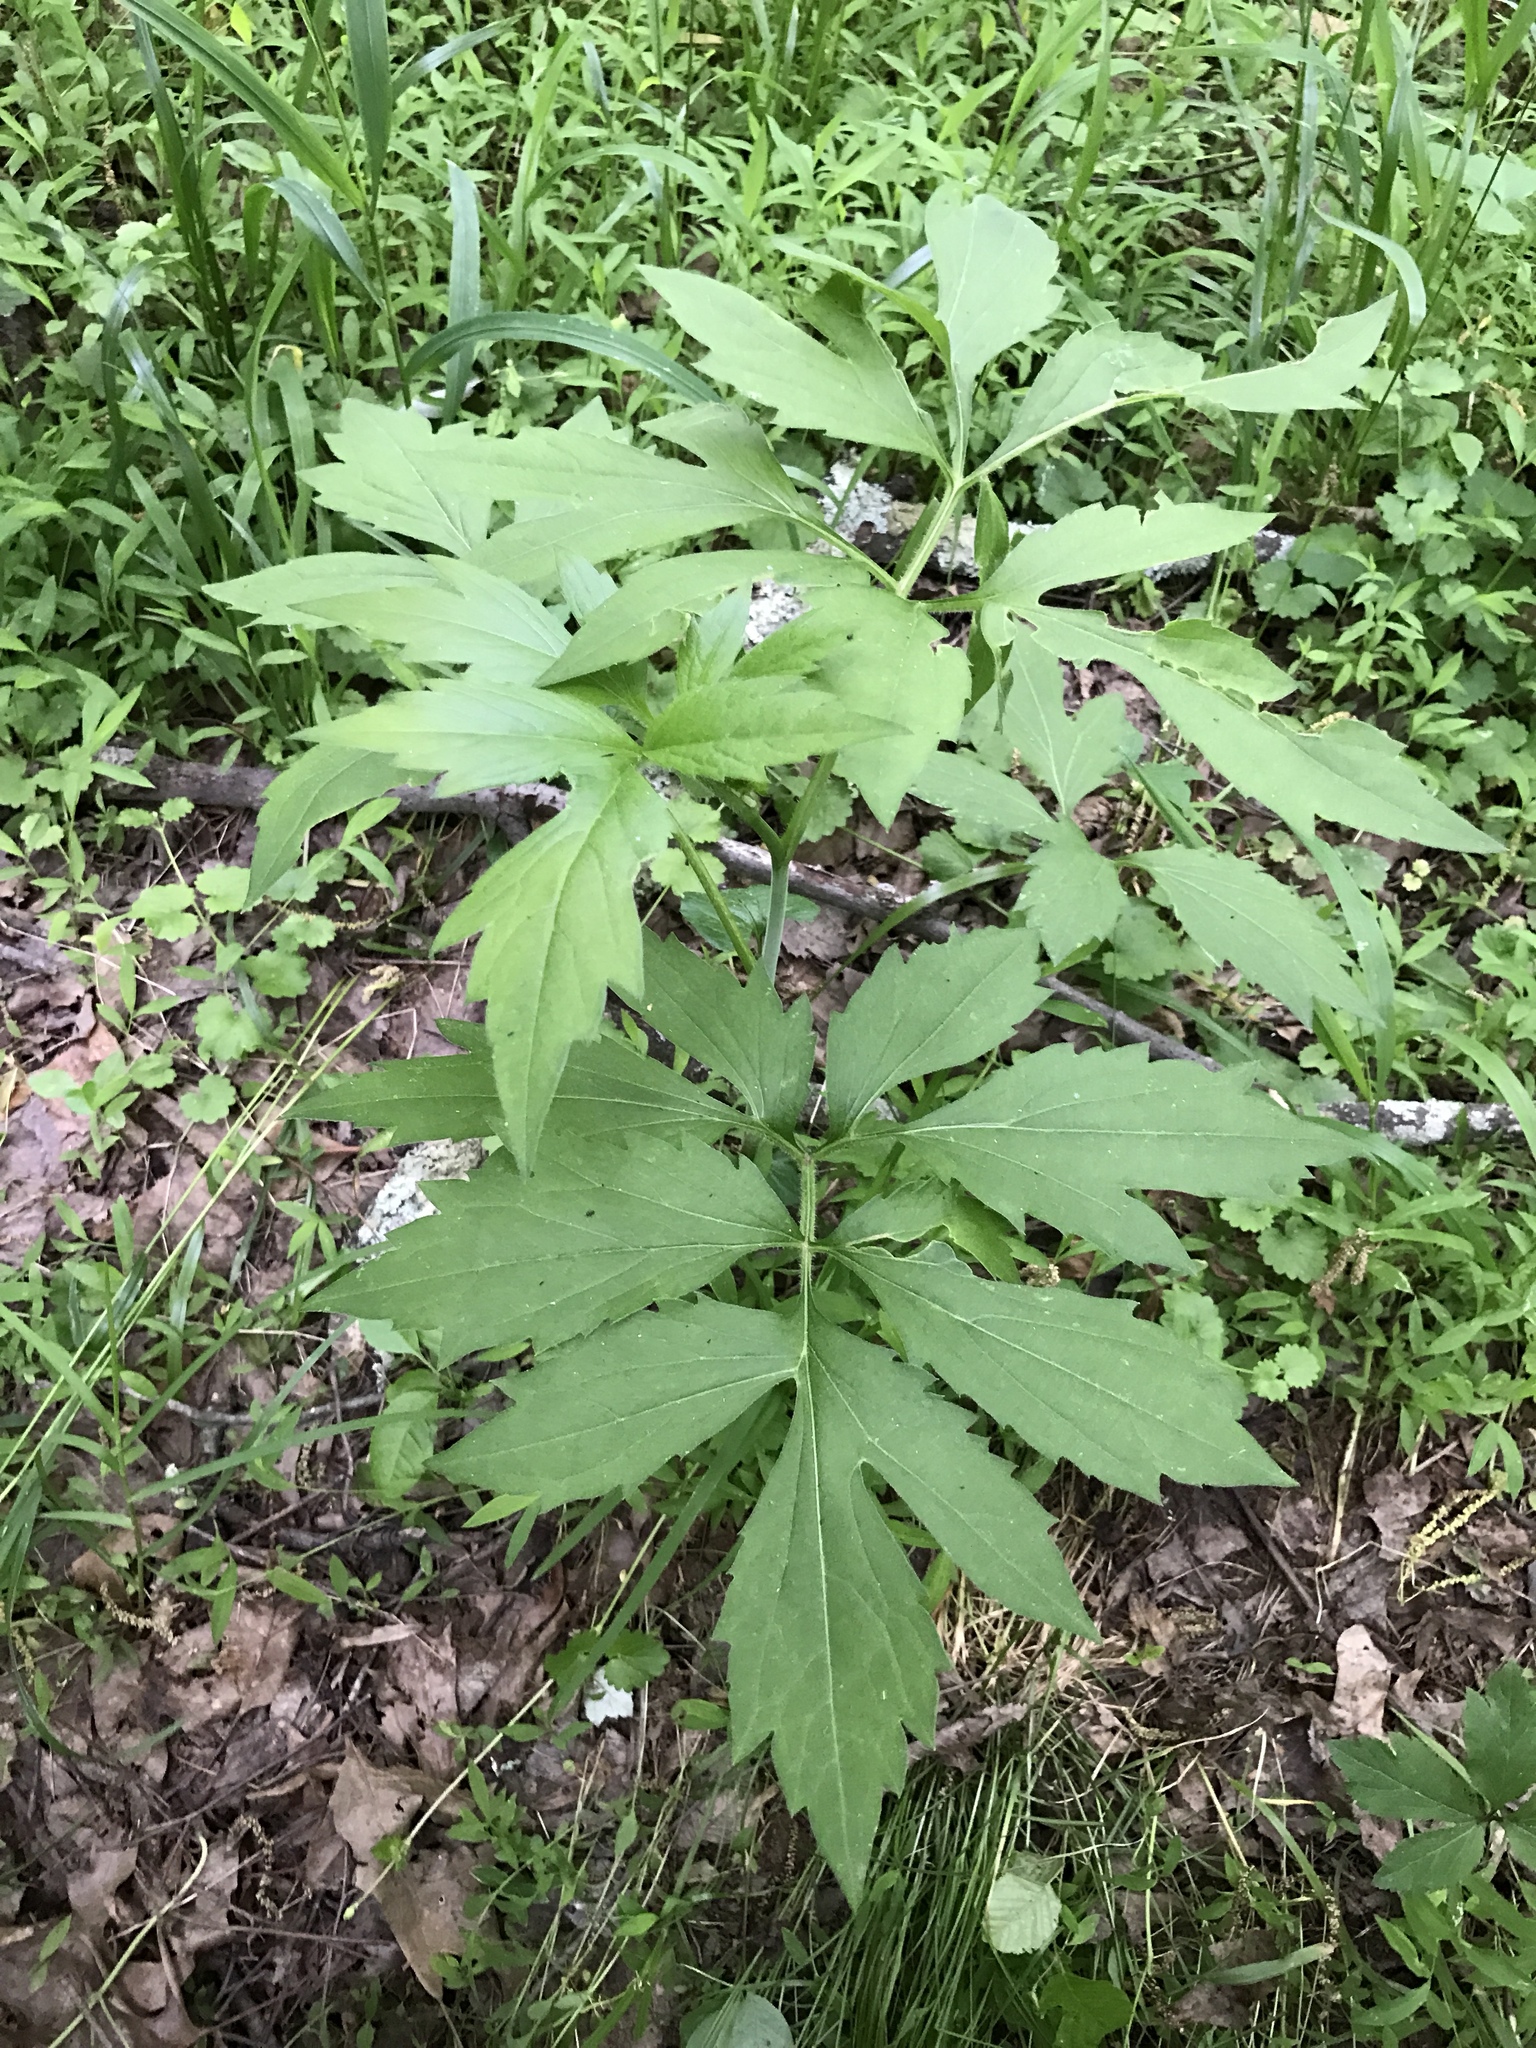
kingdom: Plantae
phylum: Tracheophyta
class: Magnoliopsida
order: Asterales
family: Asteraceae
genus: Rudbeckia
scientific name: Rudbeckia laciniata
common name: Coneflower
